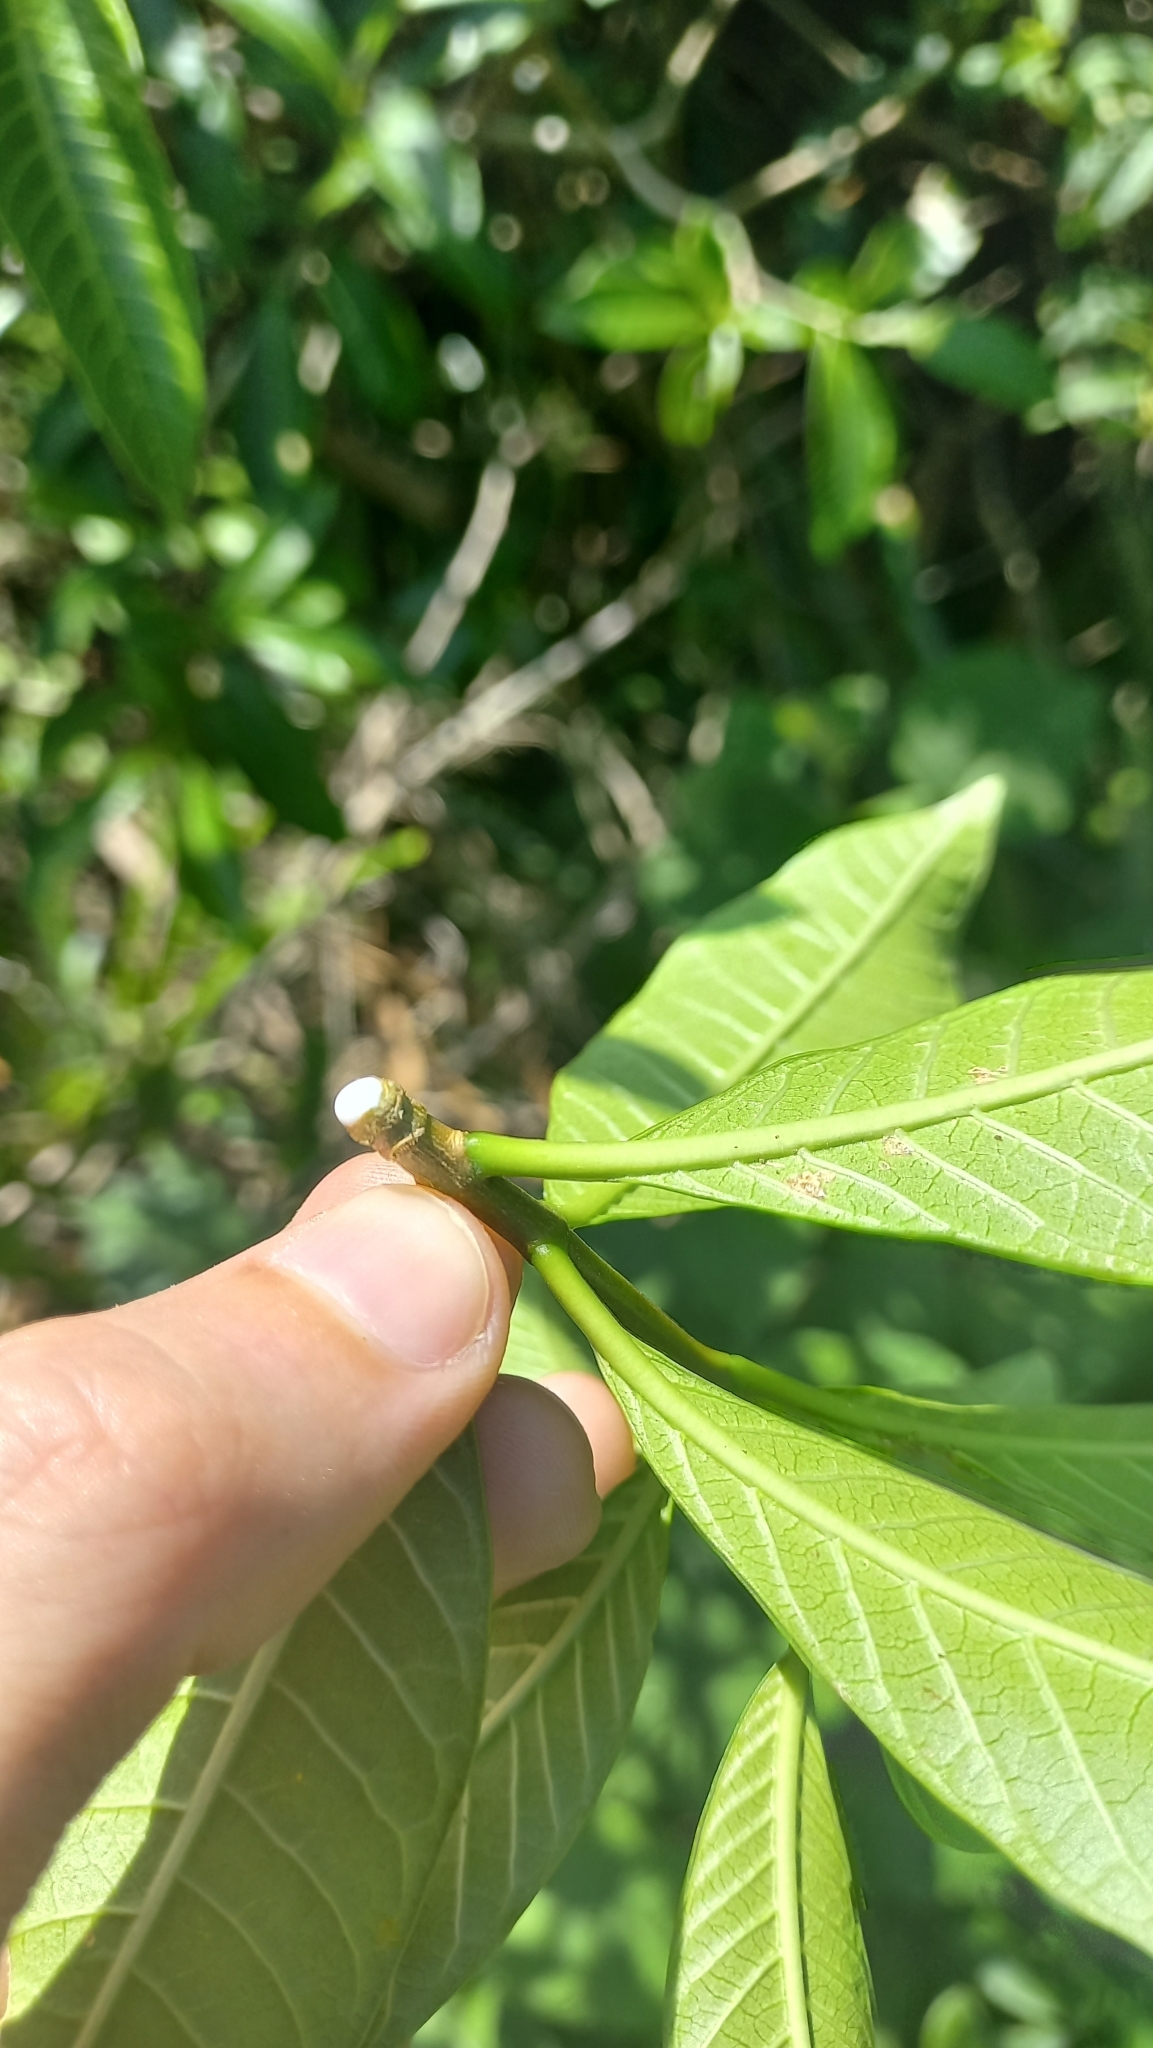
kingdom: Plantae
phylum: Tracheophyta
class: Magnoliopsida
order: Gentianales
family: Apocynaceae
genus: Tabernaemontana
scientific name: Tabernaemontana catharinensis
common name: Pinwheel-flower
